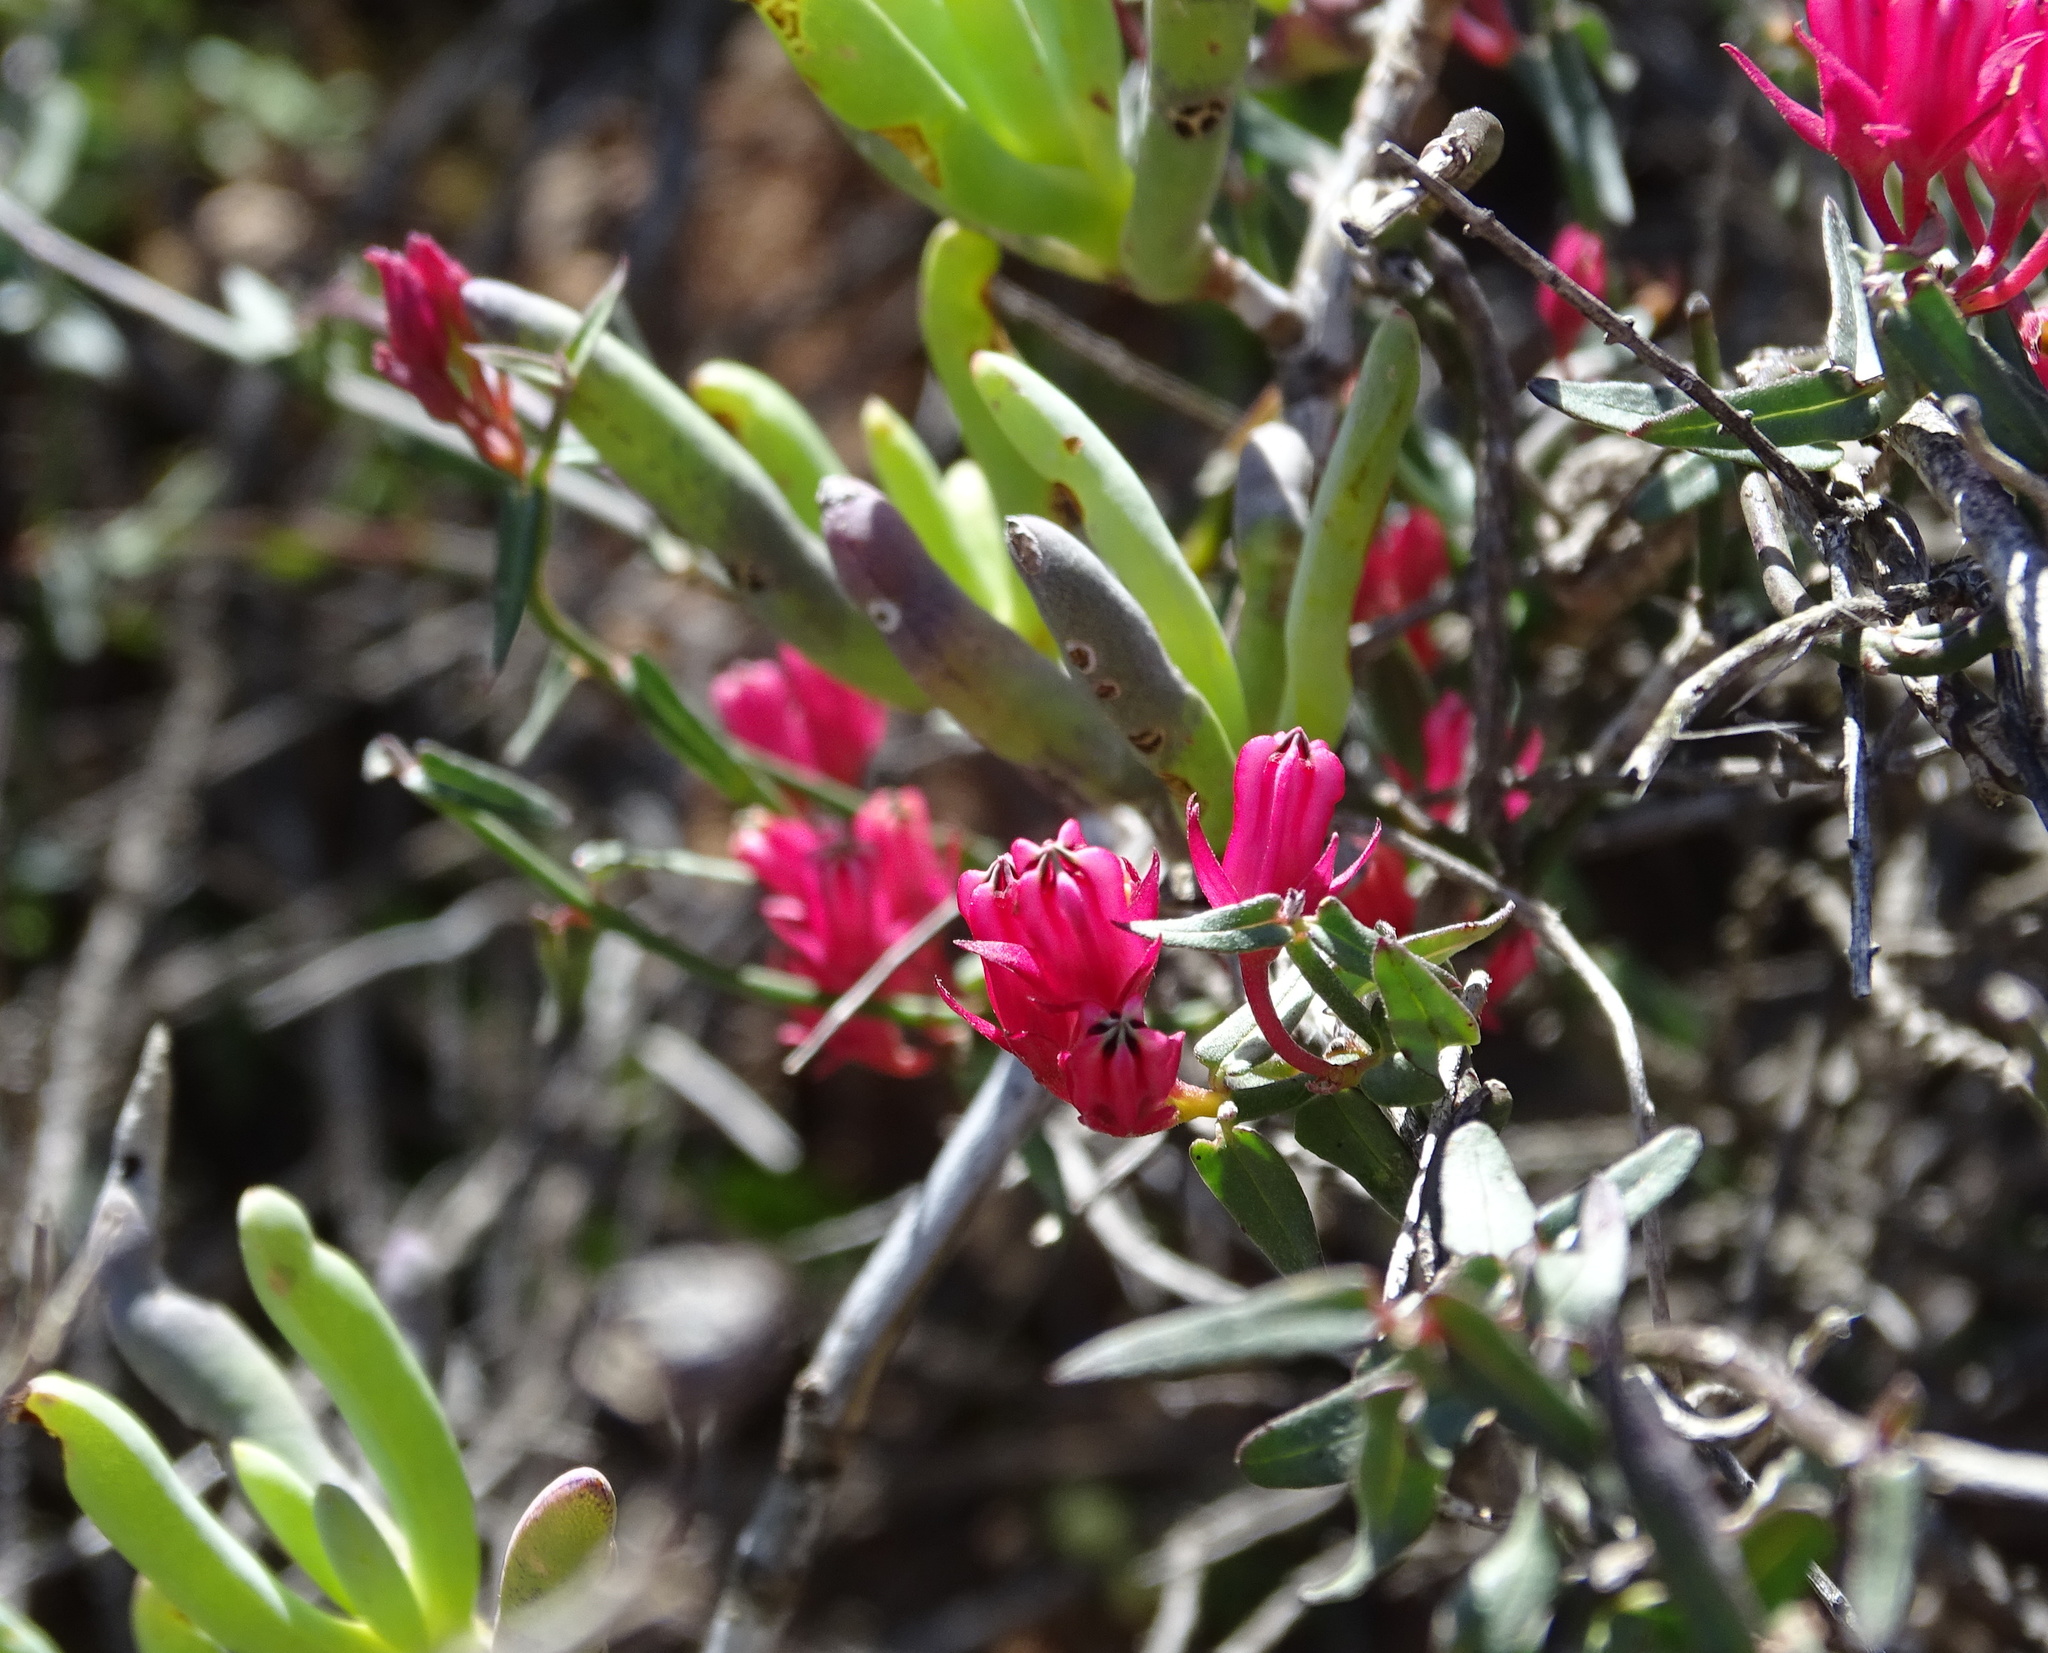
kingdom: Plantae
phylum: Tracheophyta
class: Magnoliopsida
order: Gentianales
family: Apocynaceae
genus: Microloma
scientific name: Microloma sagittatum
